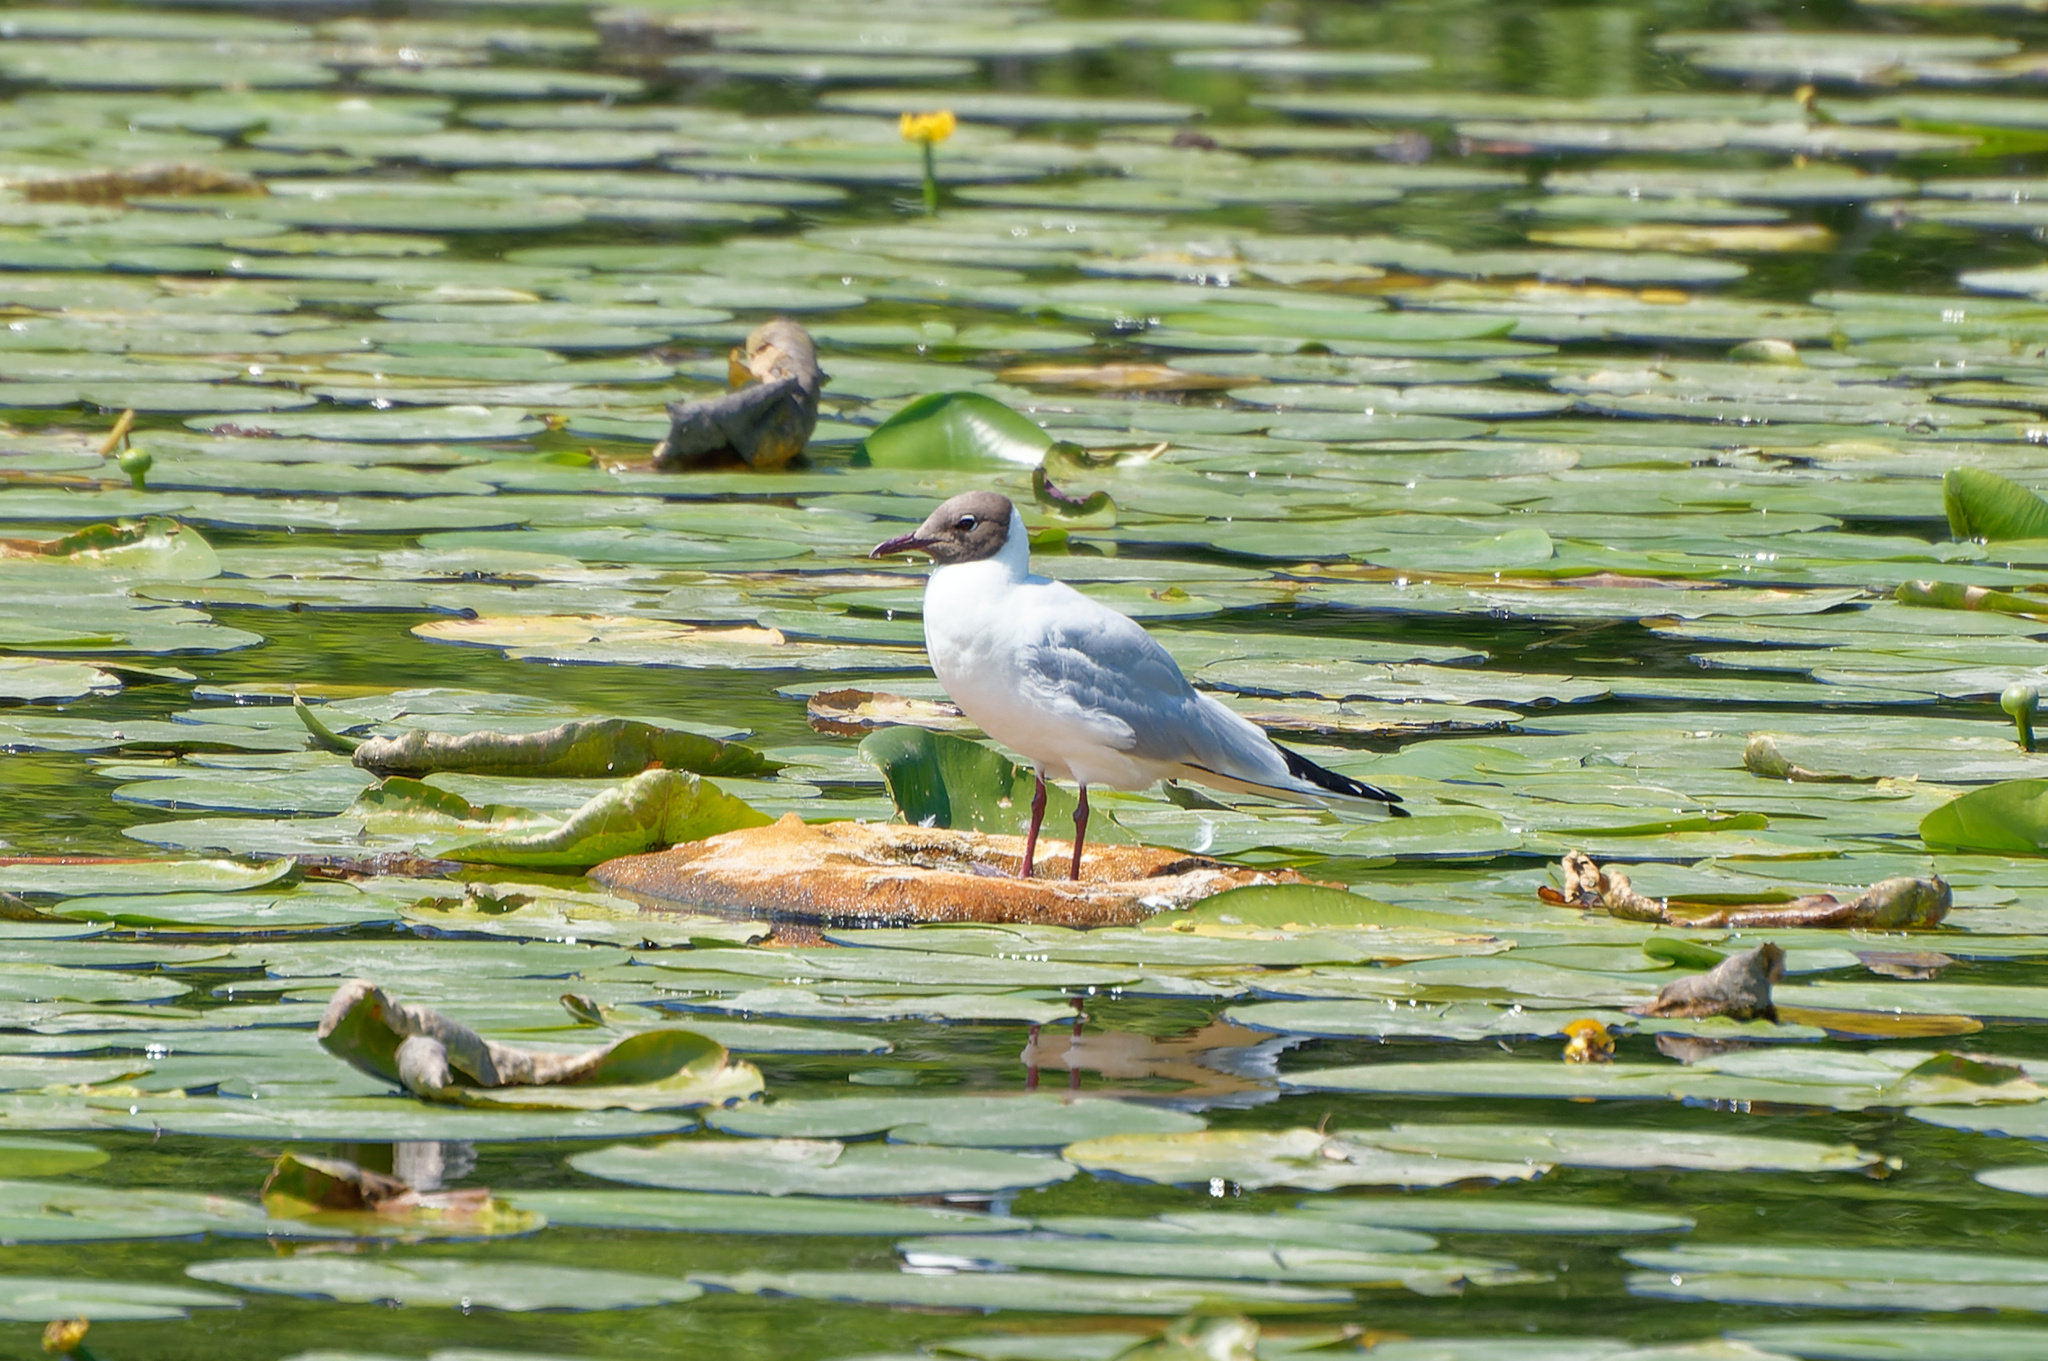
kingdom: Animalia
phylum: Chordata
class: Aves
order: Charadriiformes
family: Laridae
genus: Chroicocephalus
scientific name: Chroicocephalus ridibundus
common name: Black-headed gull
